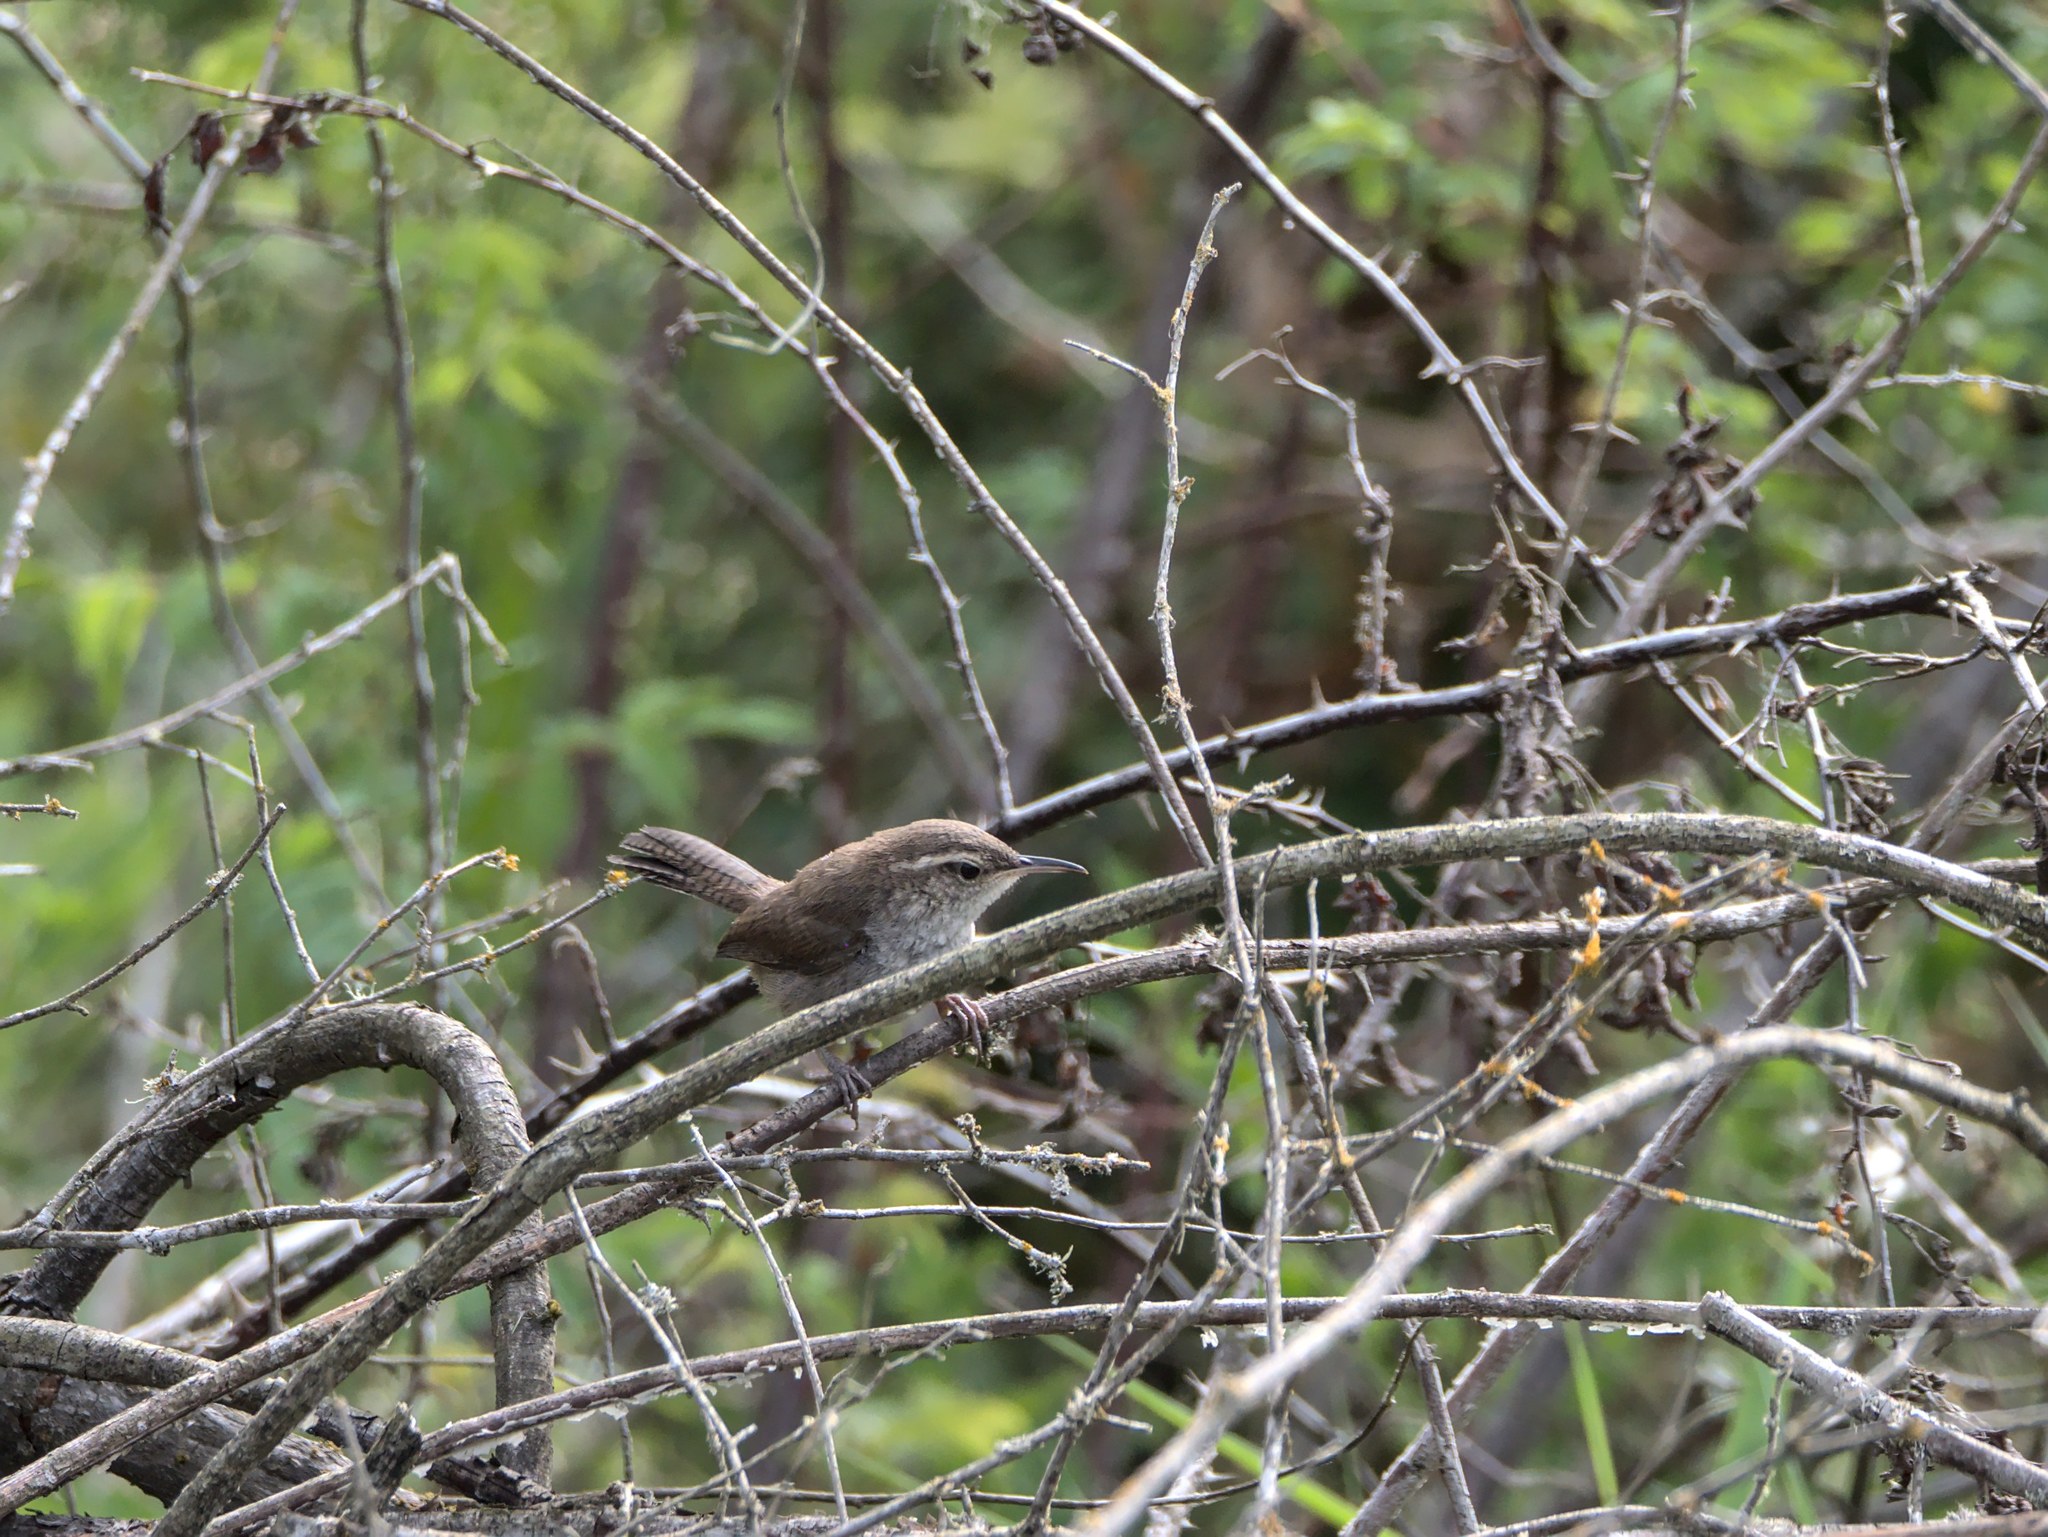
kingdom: Animalia
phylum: Chordata
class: Aves
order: Passeriformes
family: Troglodytidae
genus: Thryomanes
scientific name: Thryomanes bewickii
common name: Bewick's wren
